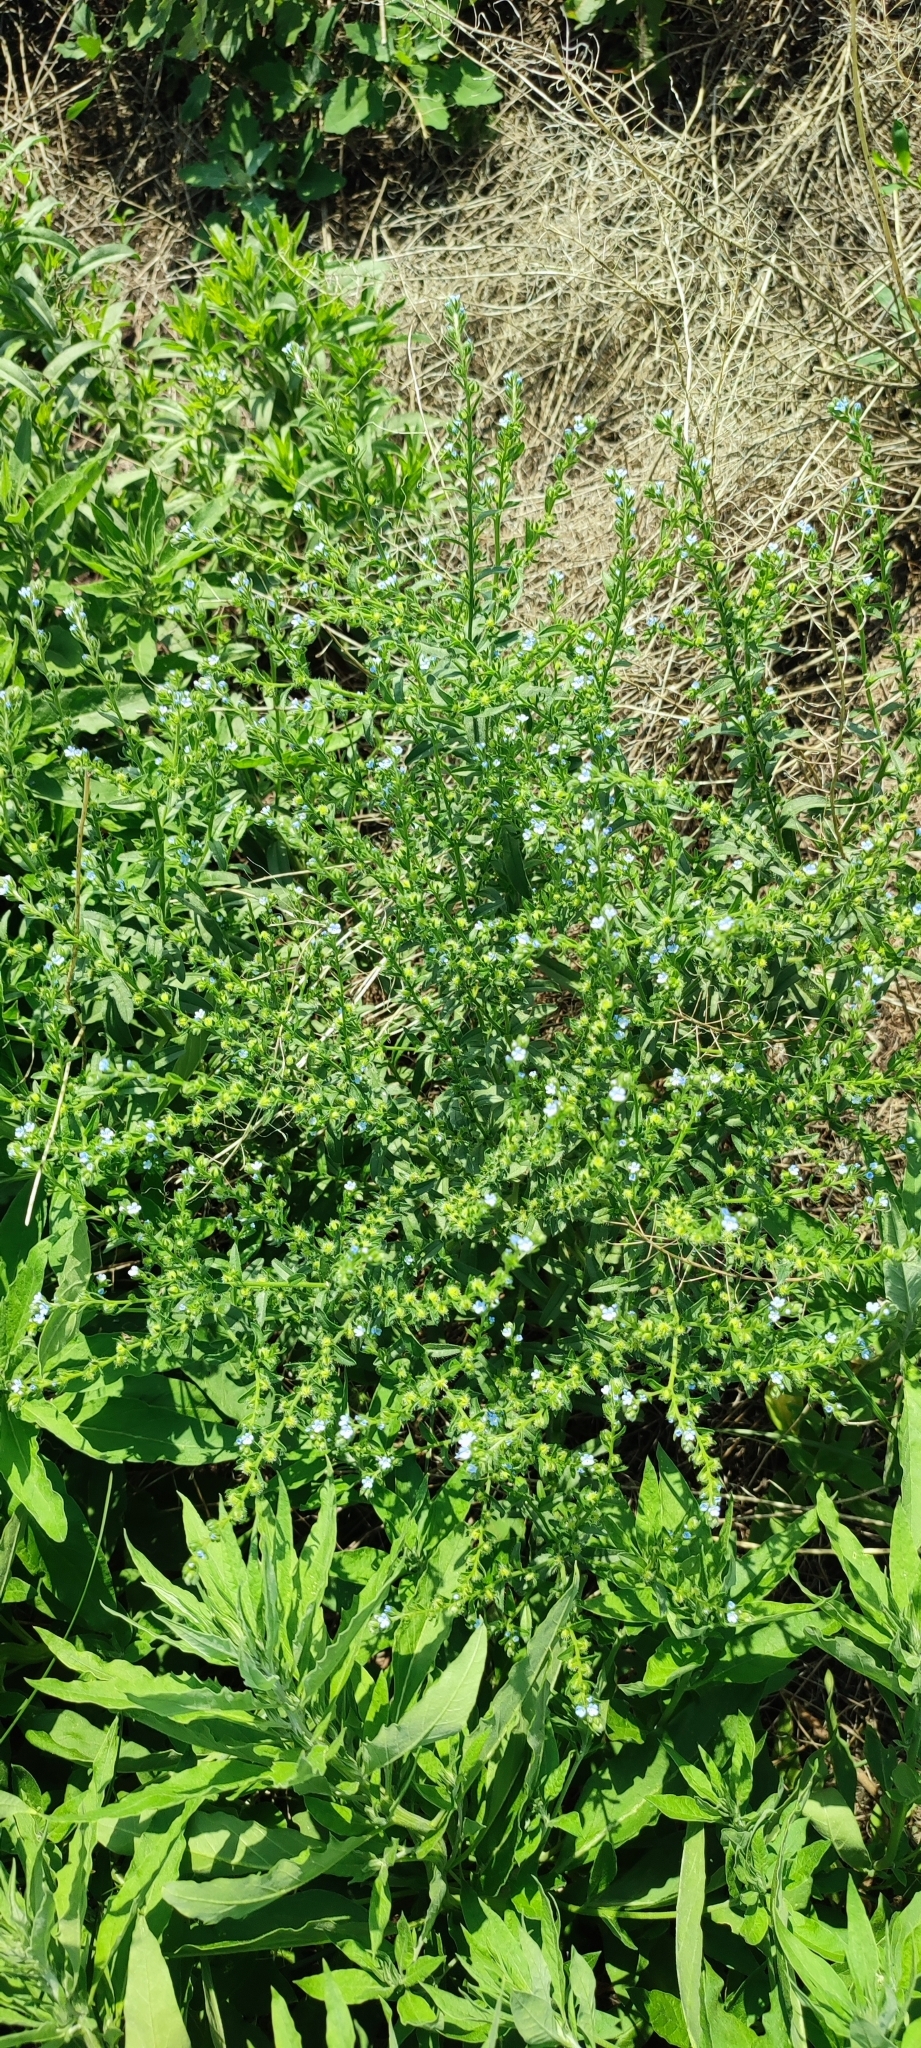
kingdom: Plantae
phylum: Tracheophyta
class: Magnoliopsida
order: Boraginales
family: Boraginaceae
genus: Lappula
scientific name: Lappula squarrosa
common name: European stickseed
